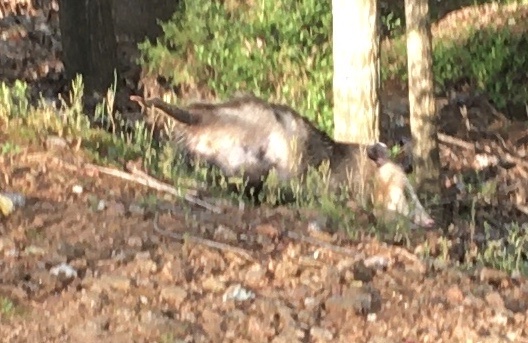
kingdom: Animalia
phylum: Chordata
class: Mammalia
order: Didelphimorphia
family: Didelphidae
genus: Didelphis
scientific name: Didelphis virginiana
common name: Virginia opossum
